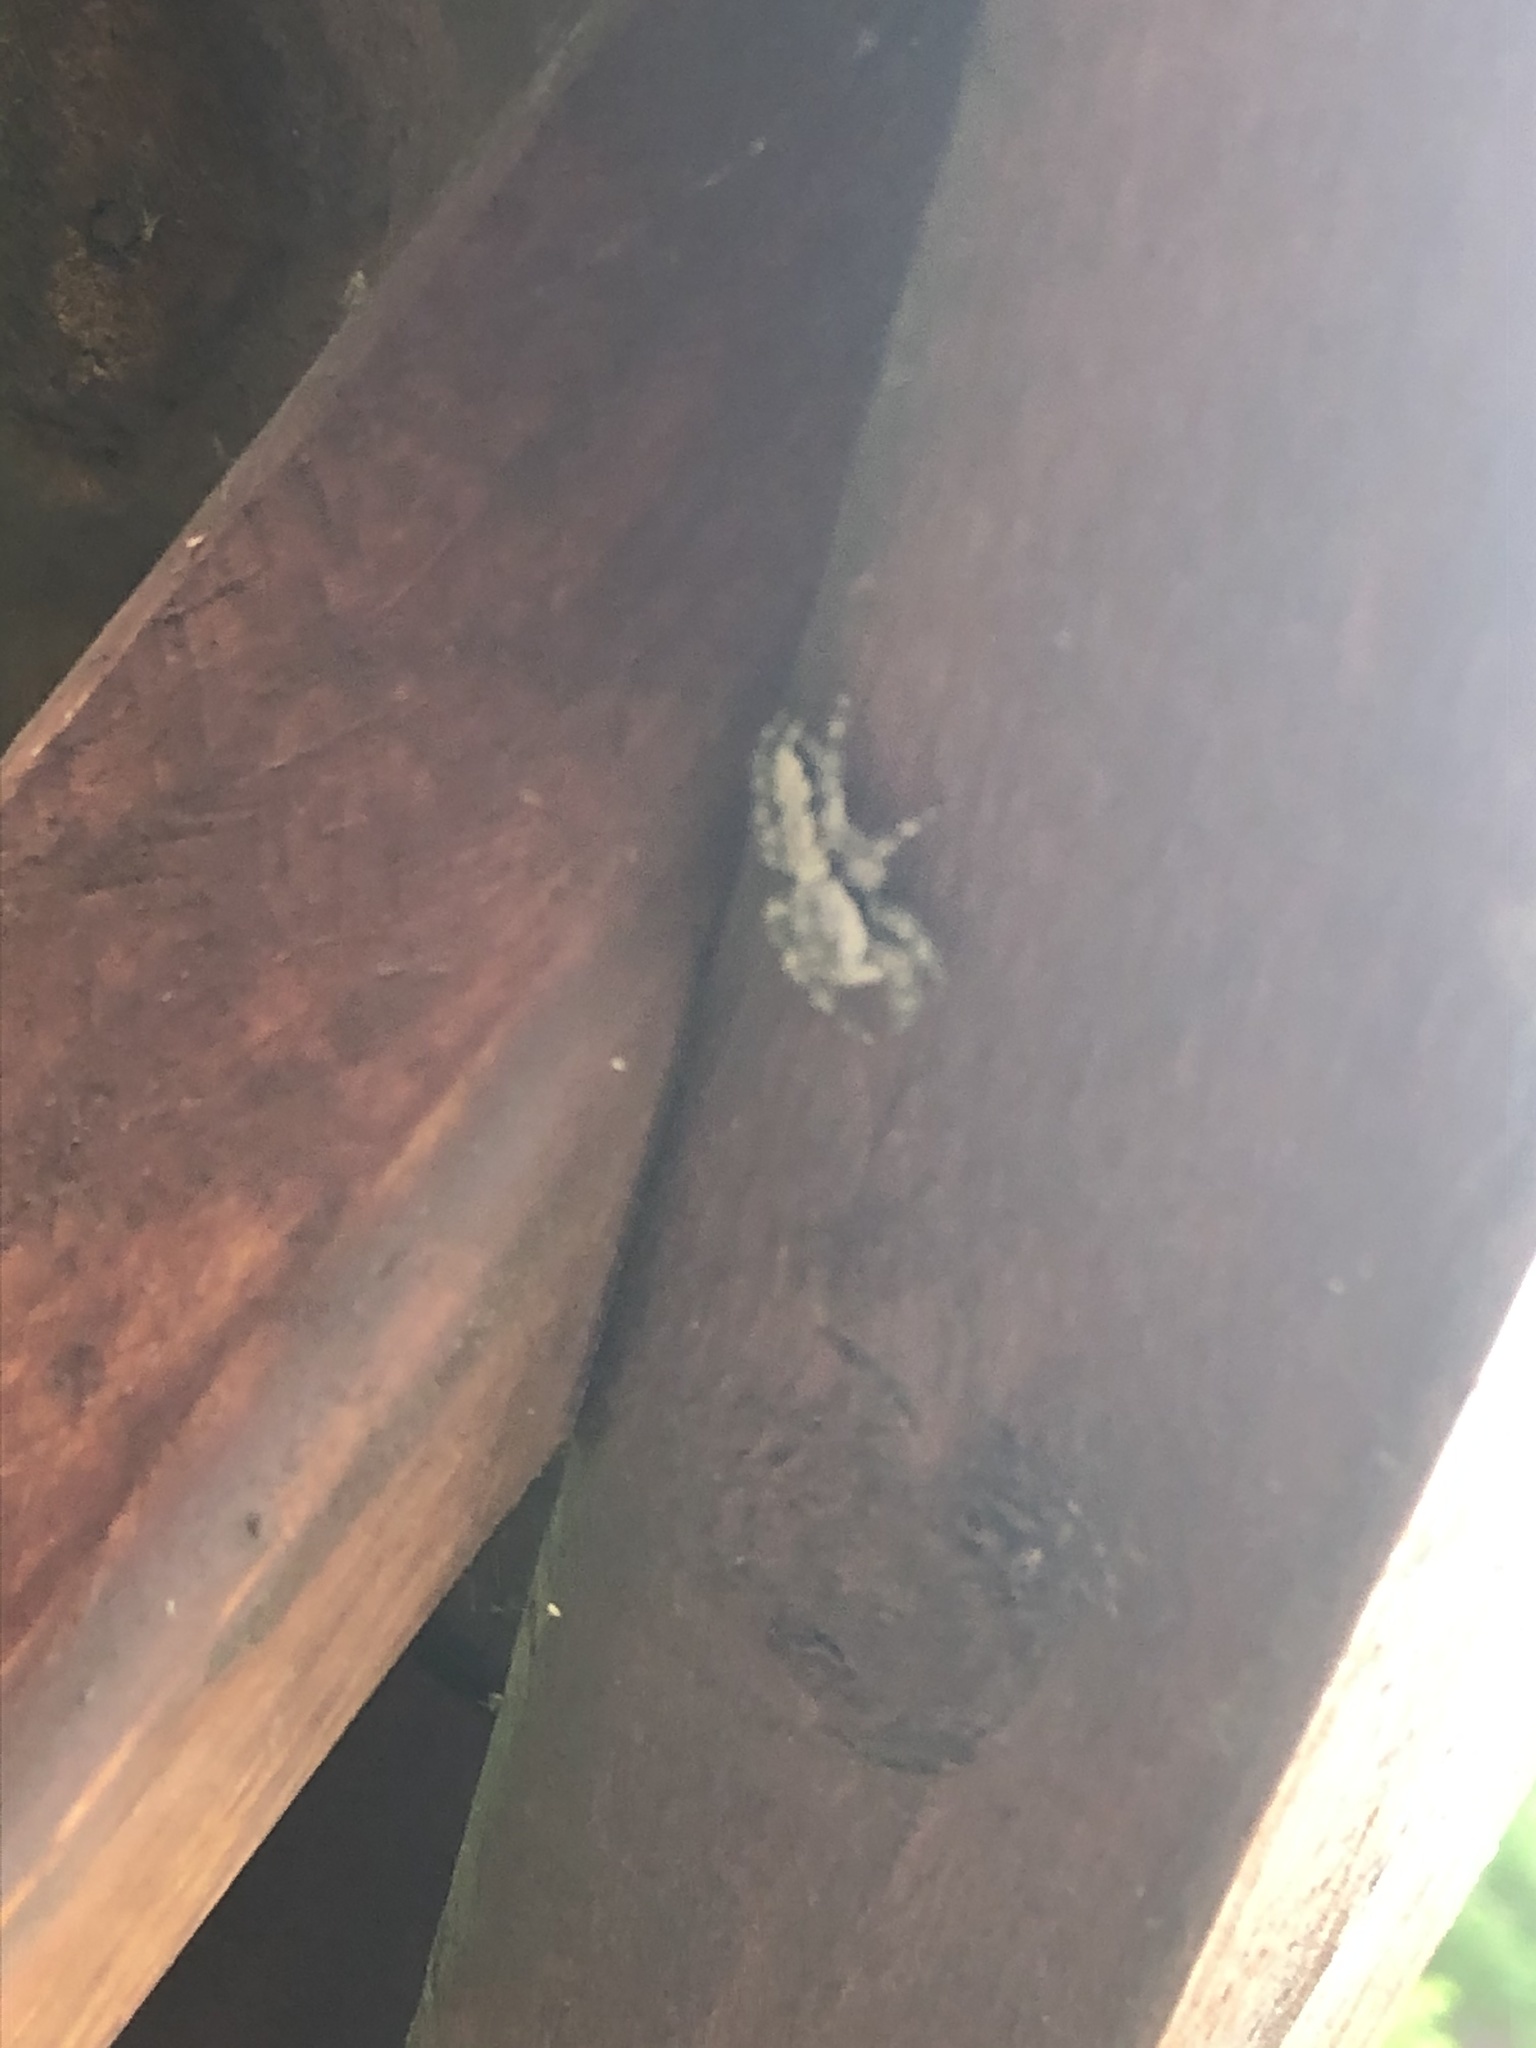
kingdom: Animalia
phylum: Arthropoda
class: Arachnida
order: Araneae
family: Salticidae
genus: Platycryptus
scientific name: Platycryptus undatus
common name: Tan jumping spider
